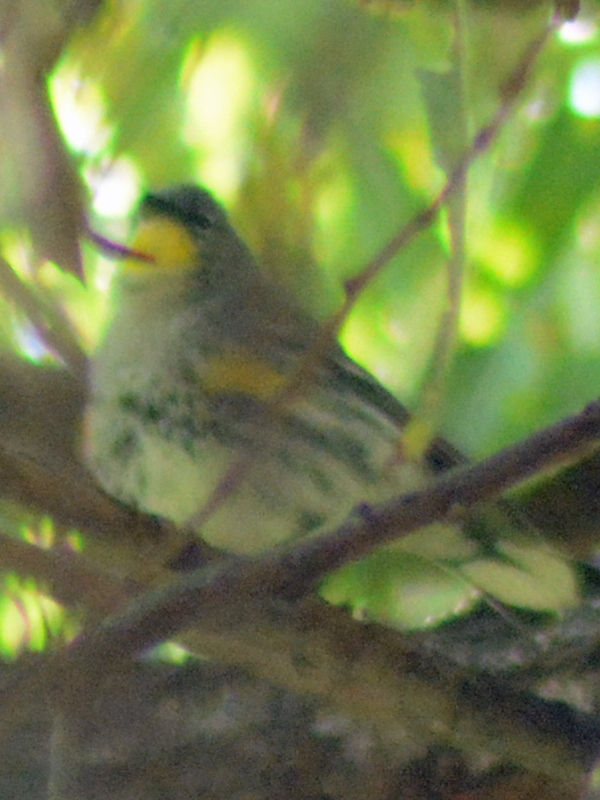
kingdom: Animalia
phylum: Chordata
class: Aves
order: Passeriformes
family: Parulidae
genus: Setophaga
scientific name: Setophaga coronata
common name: Myrtle warbler
